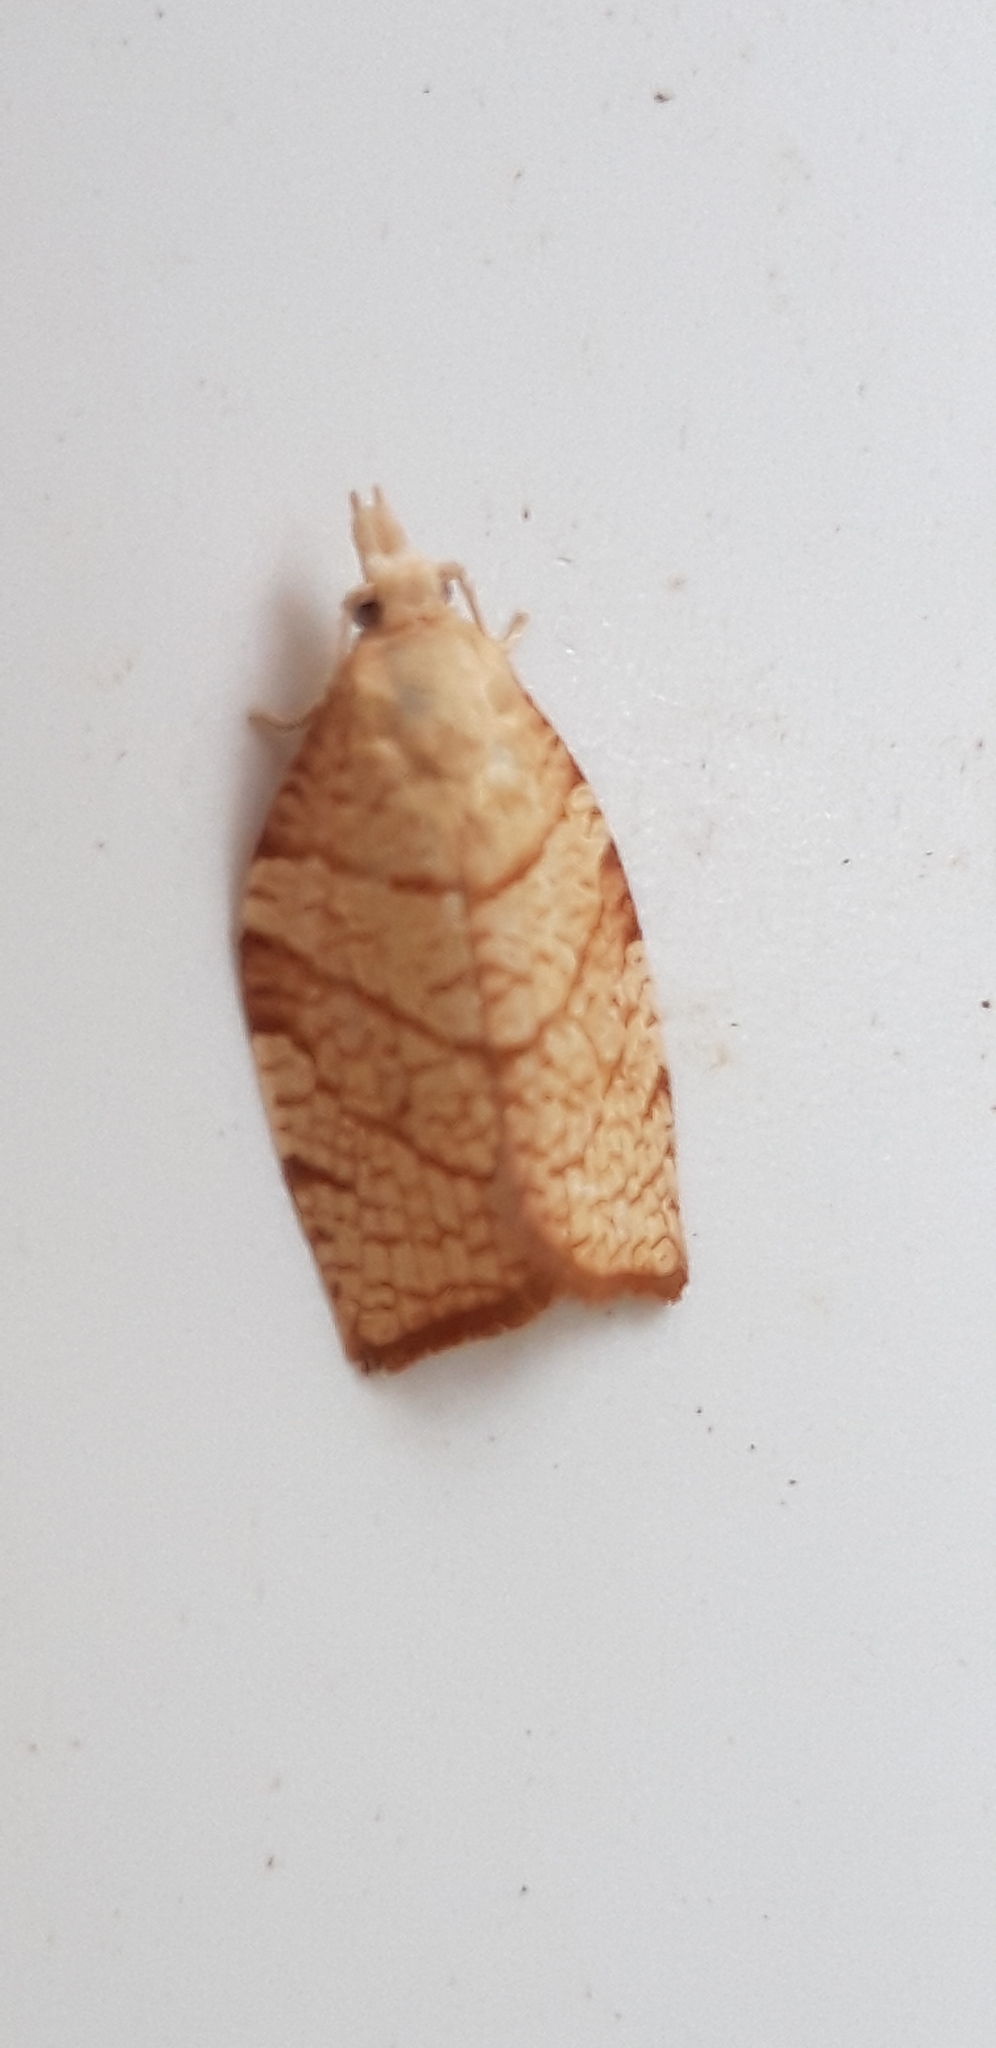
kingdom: Animalia
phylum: Arthropoda
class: Insecta
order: Lepidoptera
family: Tortricidae
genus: Pandemis
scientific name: Pandemis corylana
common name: Chequered fruit-tree tortrix
